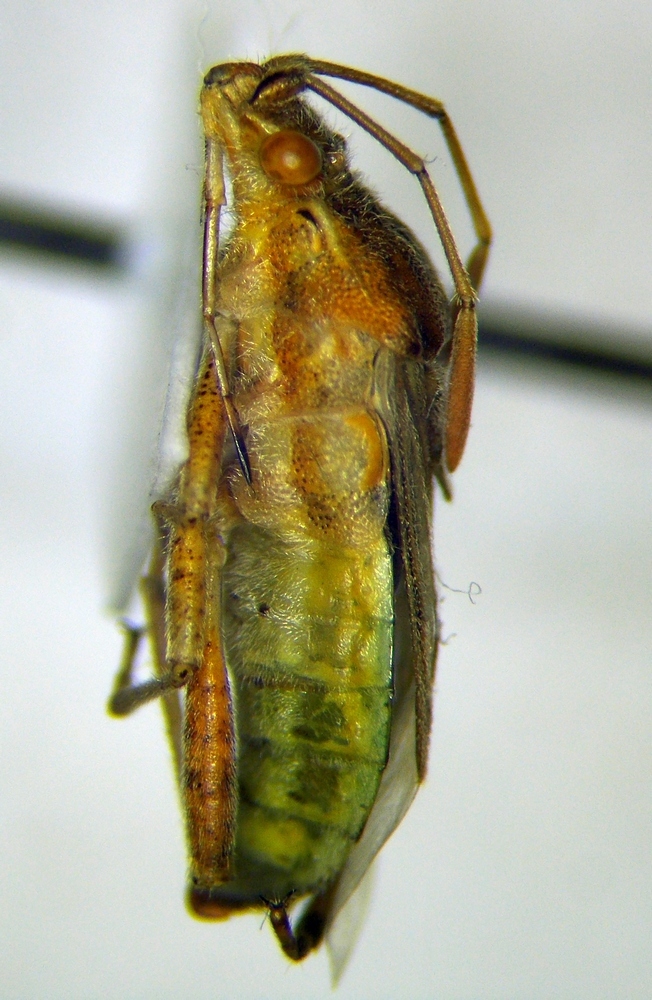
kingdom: Animalia
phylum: Arthropoda
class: Insecta
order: Hemiptera
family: Rhopalidae
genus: Stictopleurus
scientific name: Stictopleurus abutilon
